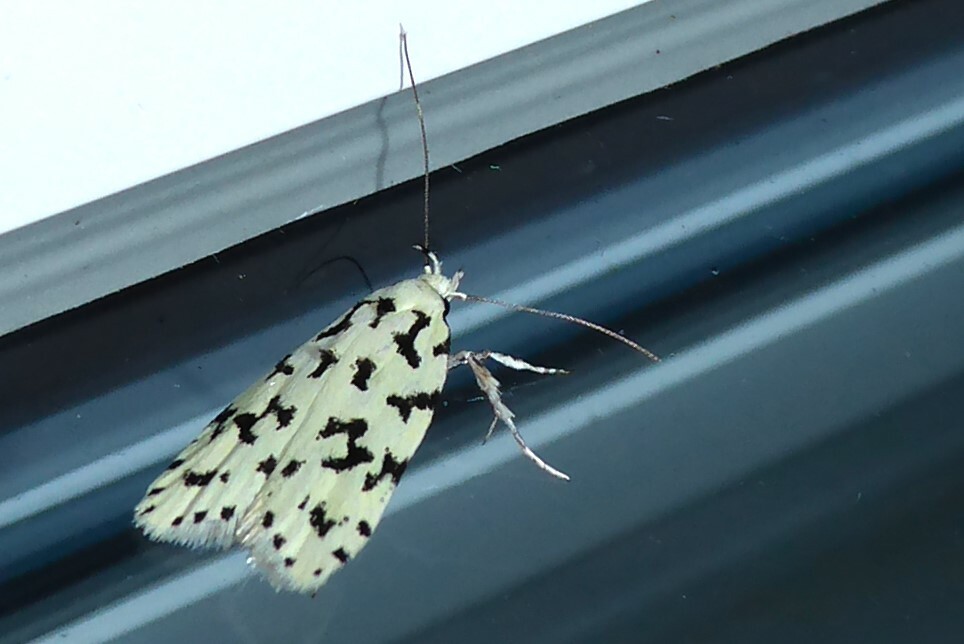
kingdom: Animalia
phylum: Arthropoda
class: Insecta
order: Lepidoptera
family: Oecophoridae
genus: Izatha
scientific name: Izatha huttoni
